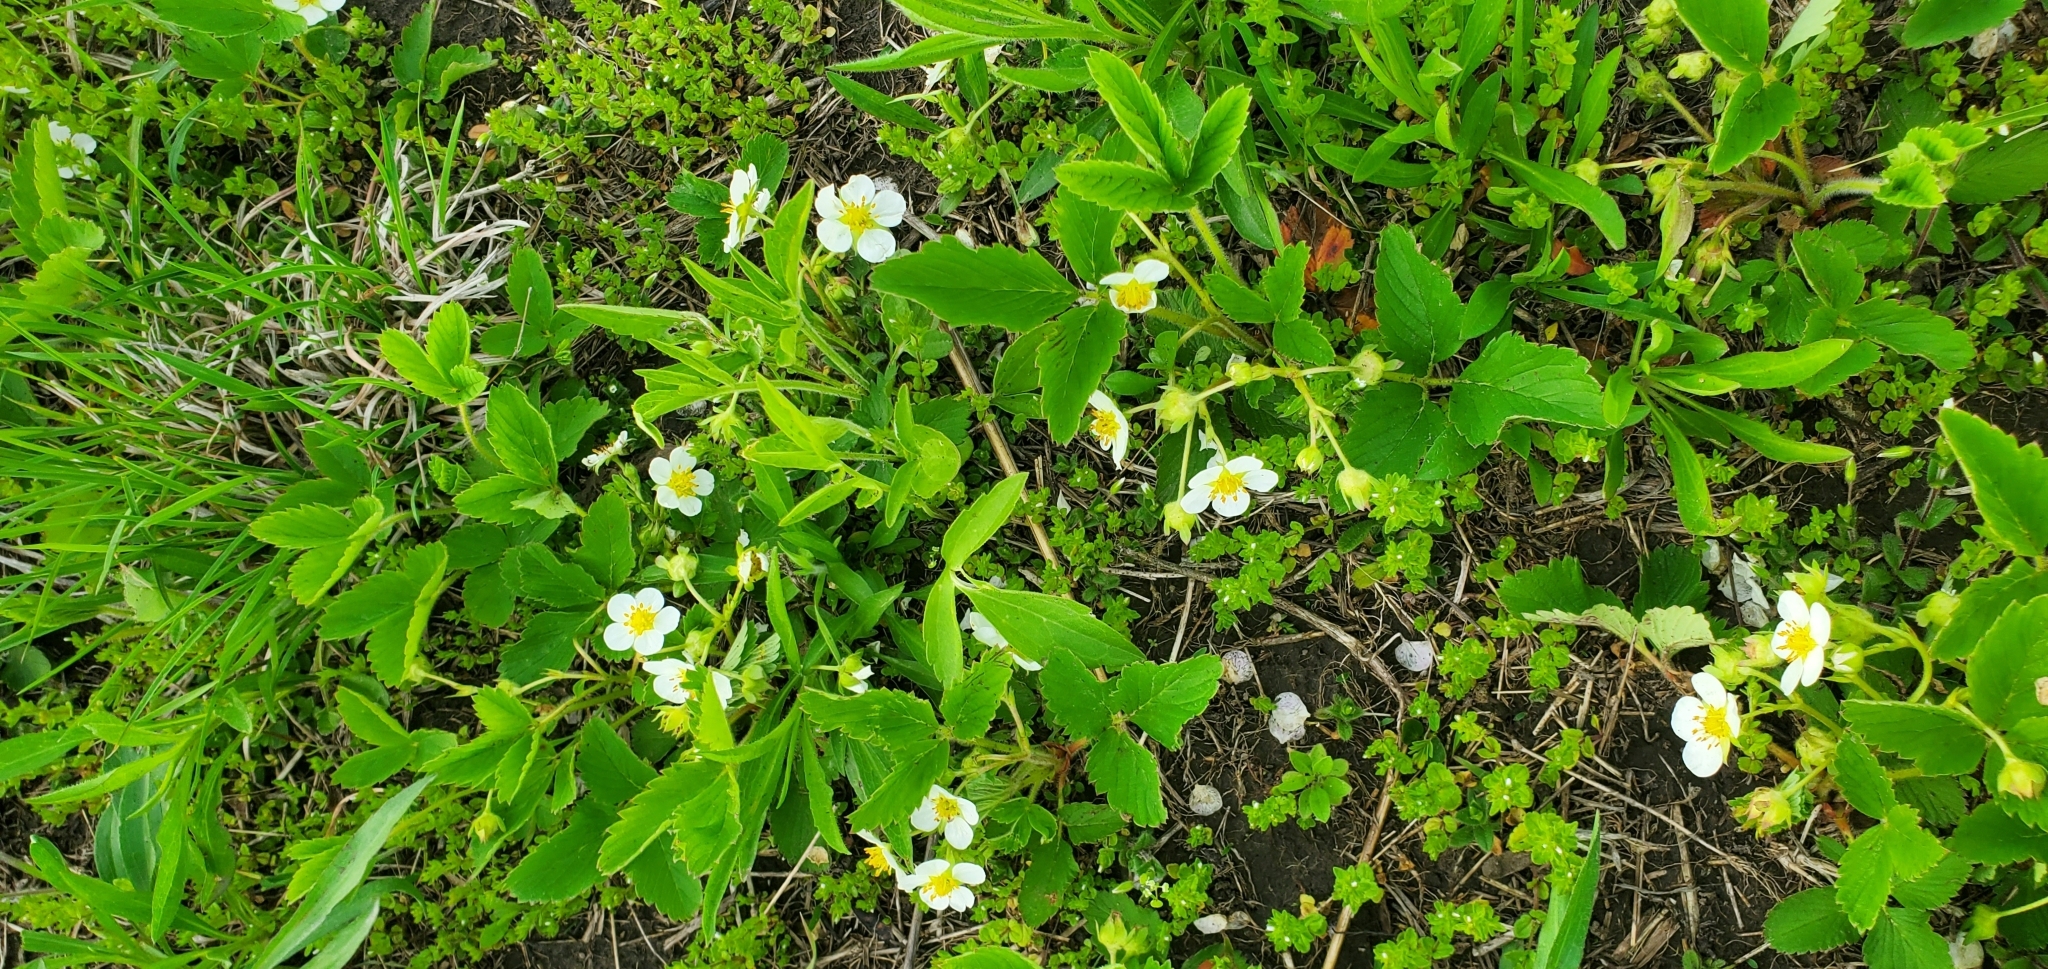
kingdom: Plantae
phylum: Tracheophyta
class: Magnoliopsida
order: Rosales
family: Rosaceae
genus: Fragaria
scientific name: Fragaria virginiana
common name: Thickleaved wild strawberry
